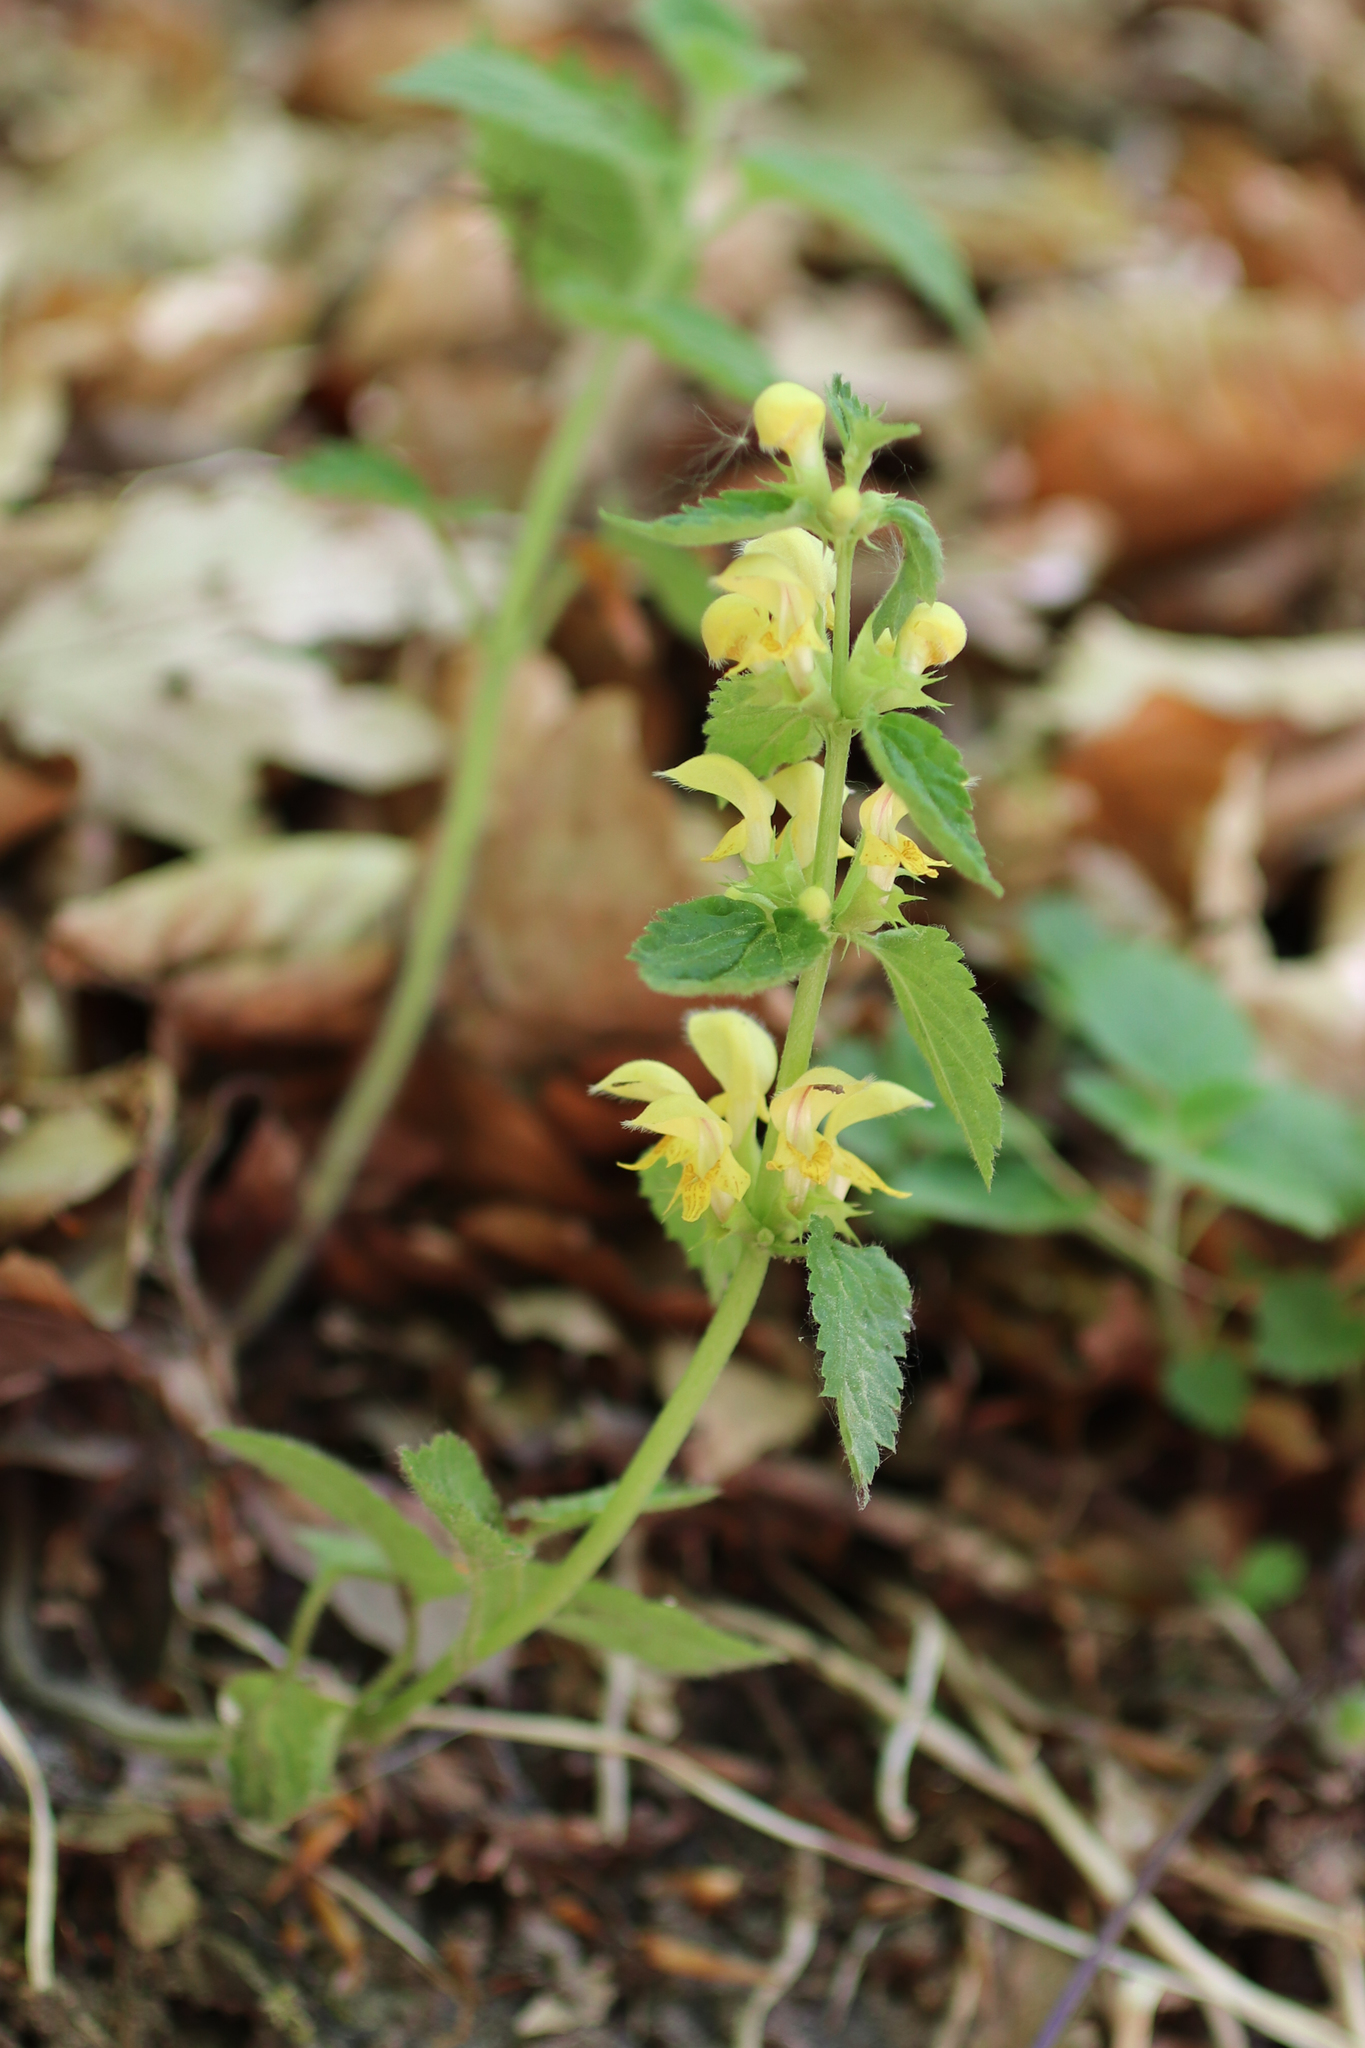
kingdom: Plantae
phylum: Tracheophyta
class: Magnoliopsida
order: Lamiales
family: Lamiaceae
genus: Lamium
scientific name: Lamium galeobdolon
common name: Yellow archangel
